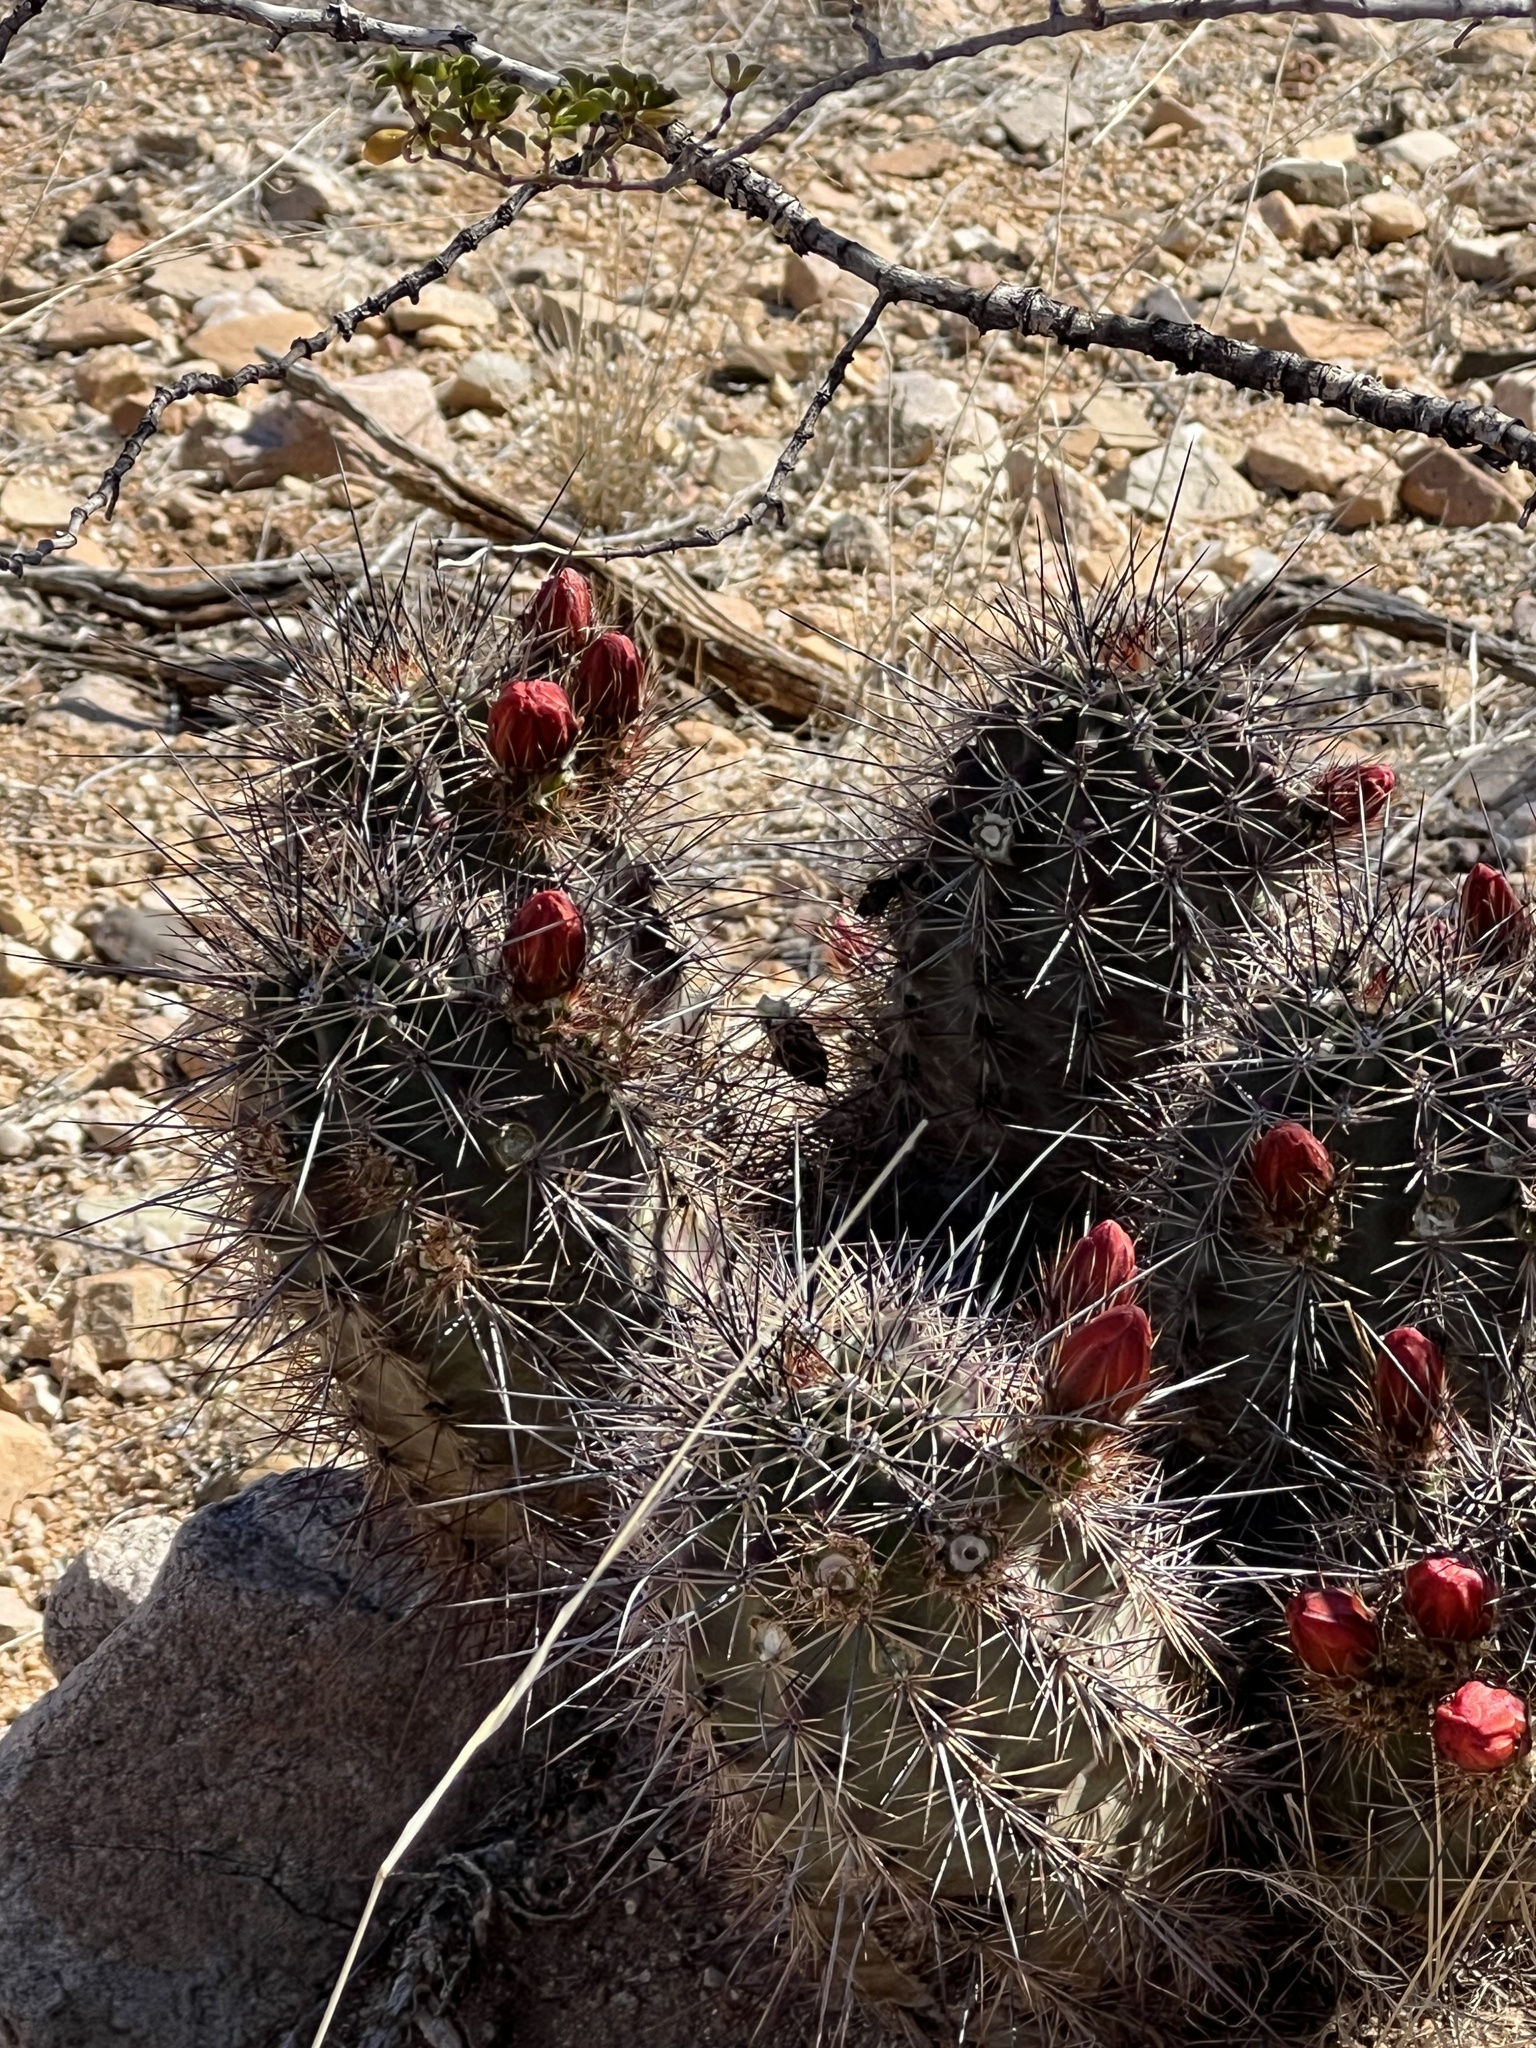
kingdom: Plantae
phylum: Tracheophyta
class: Magnoliopsida
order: Caryophyllales
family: Cactaceae
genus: Echinocereus
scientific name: Echinocereus coccineus
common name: Scarlet hedgehog cactus
